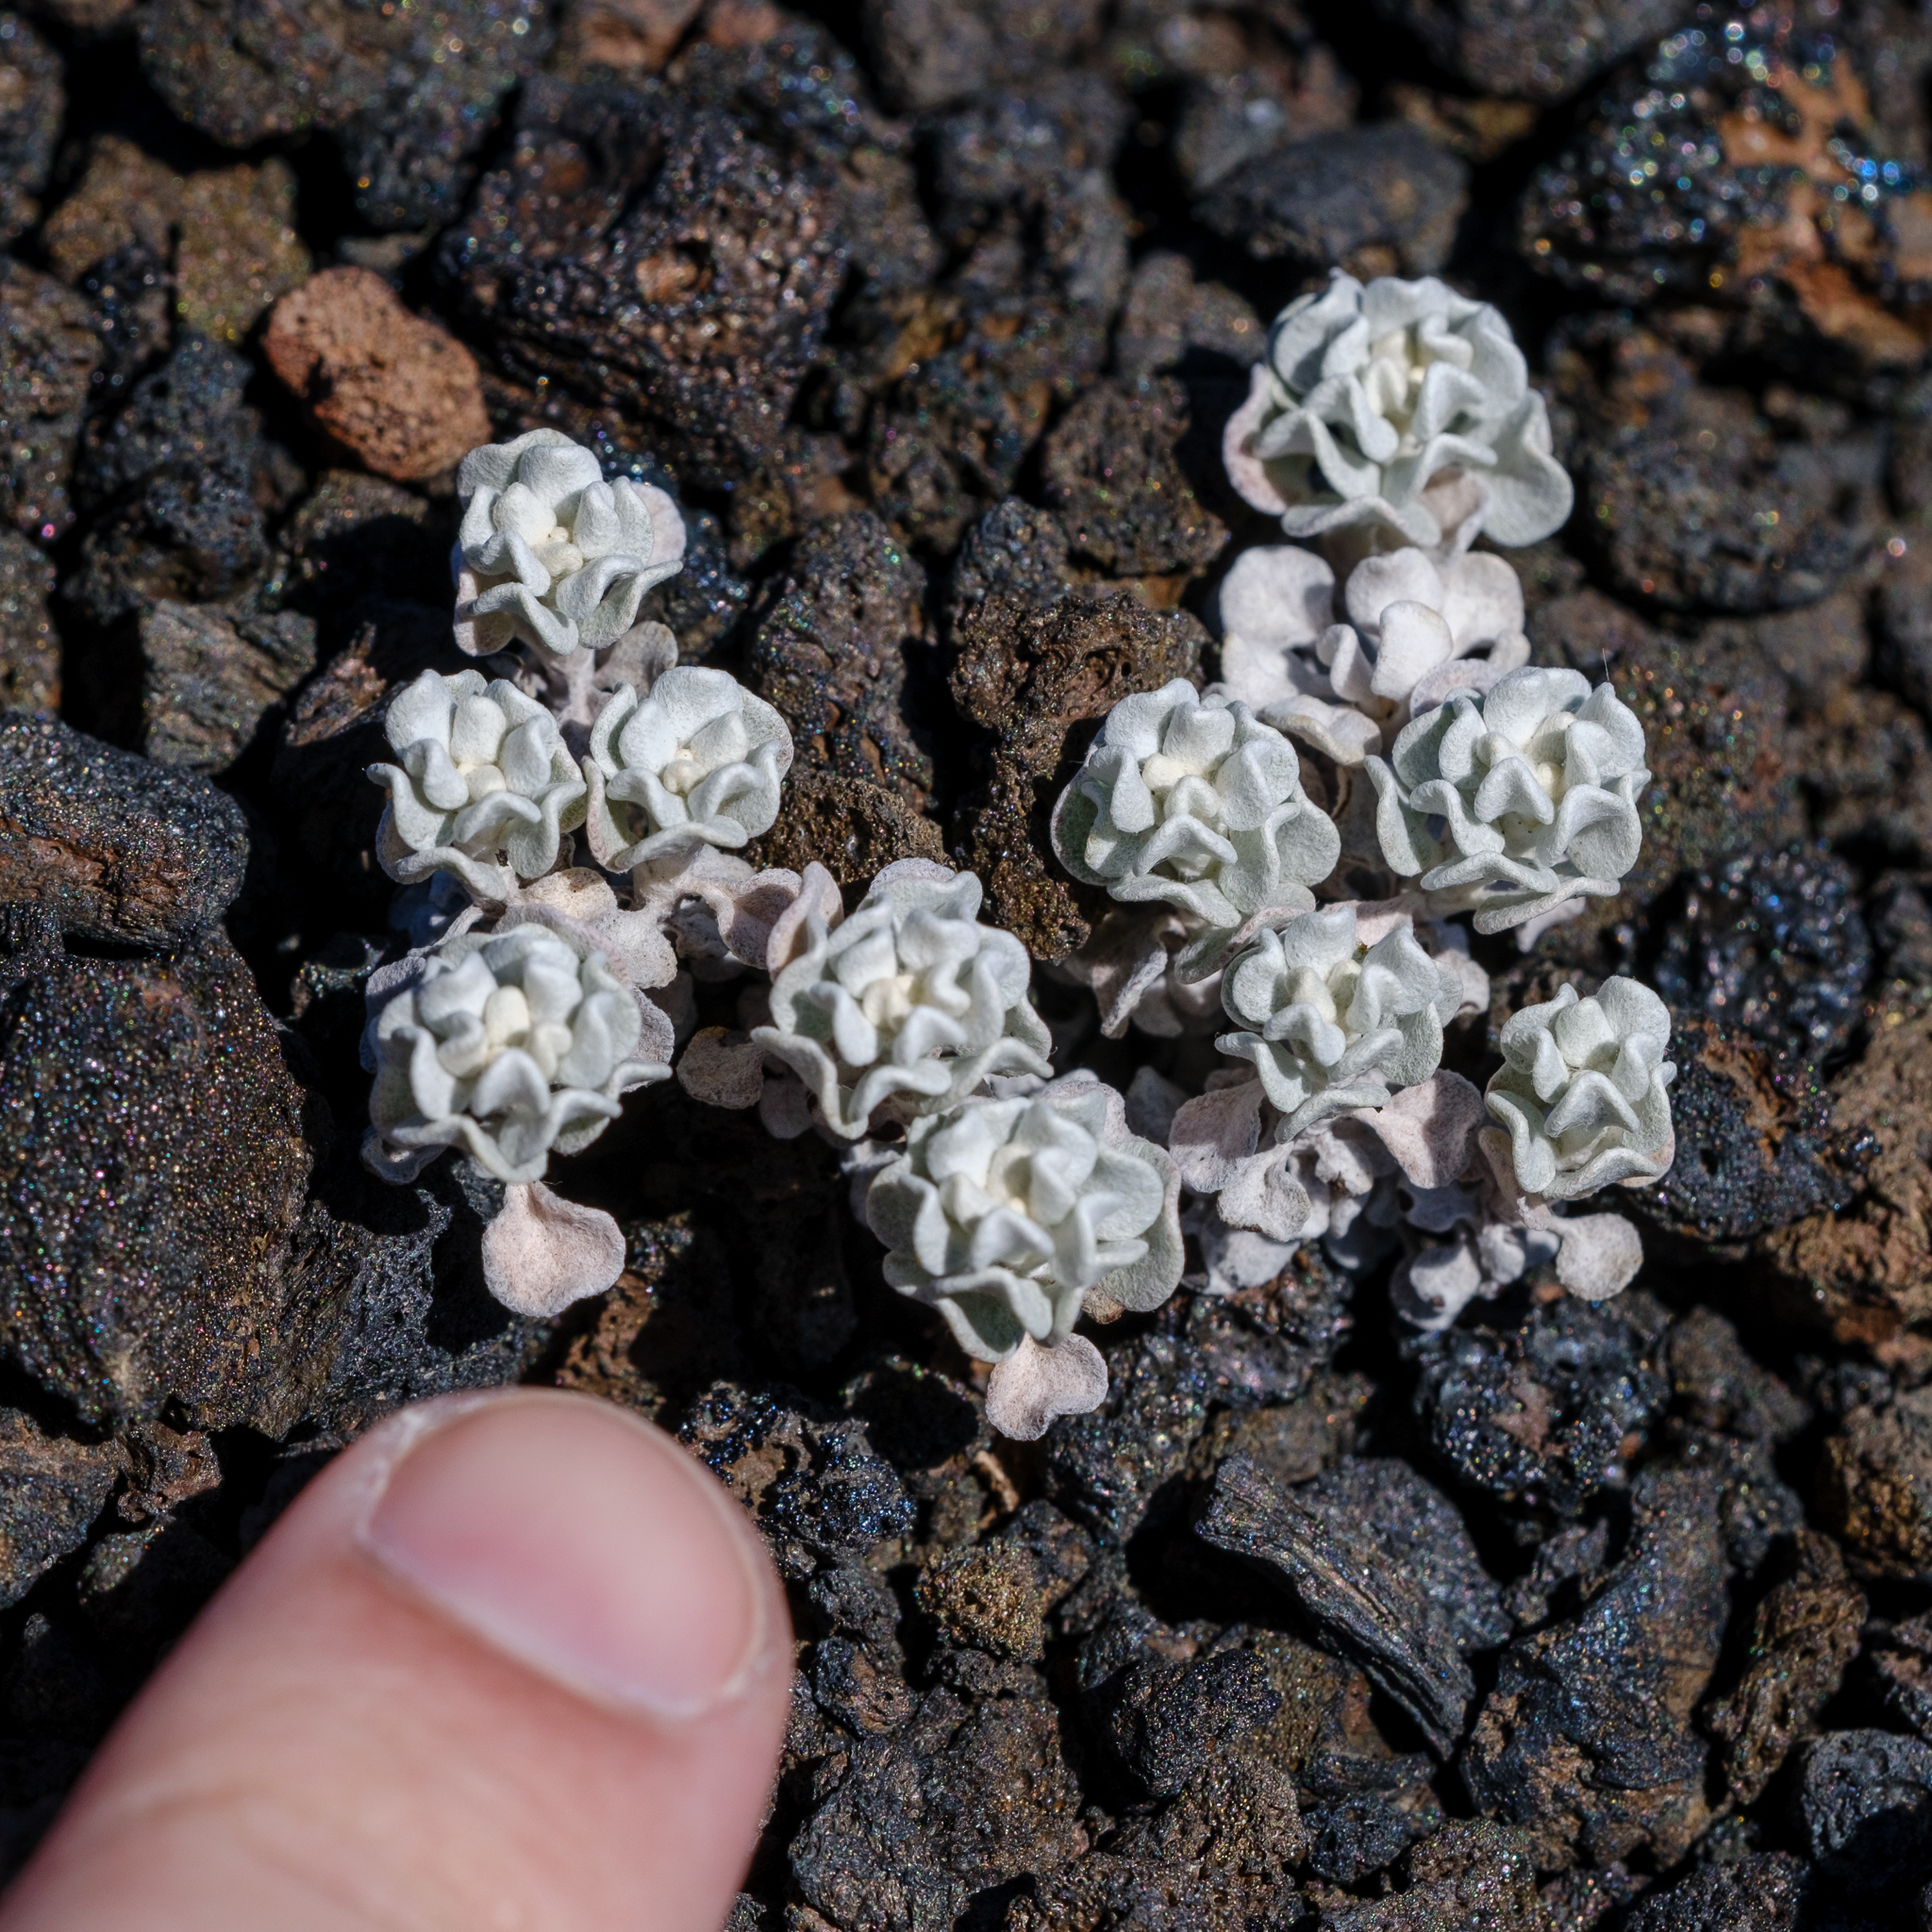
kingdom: Plantae
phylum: Tracheophyta
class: Magnoliopsida
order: Caryophyllales
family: Polygonaceae
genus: Eriogonum
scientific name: Eriogonum ovalifolium
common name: Cushion buckwheat
